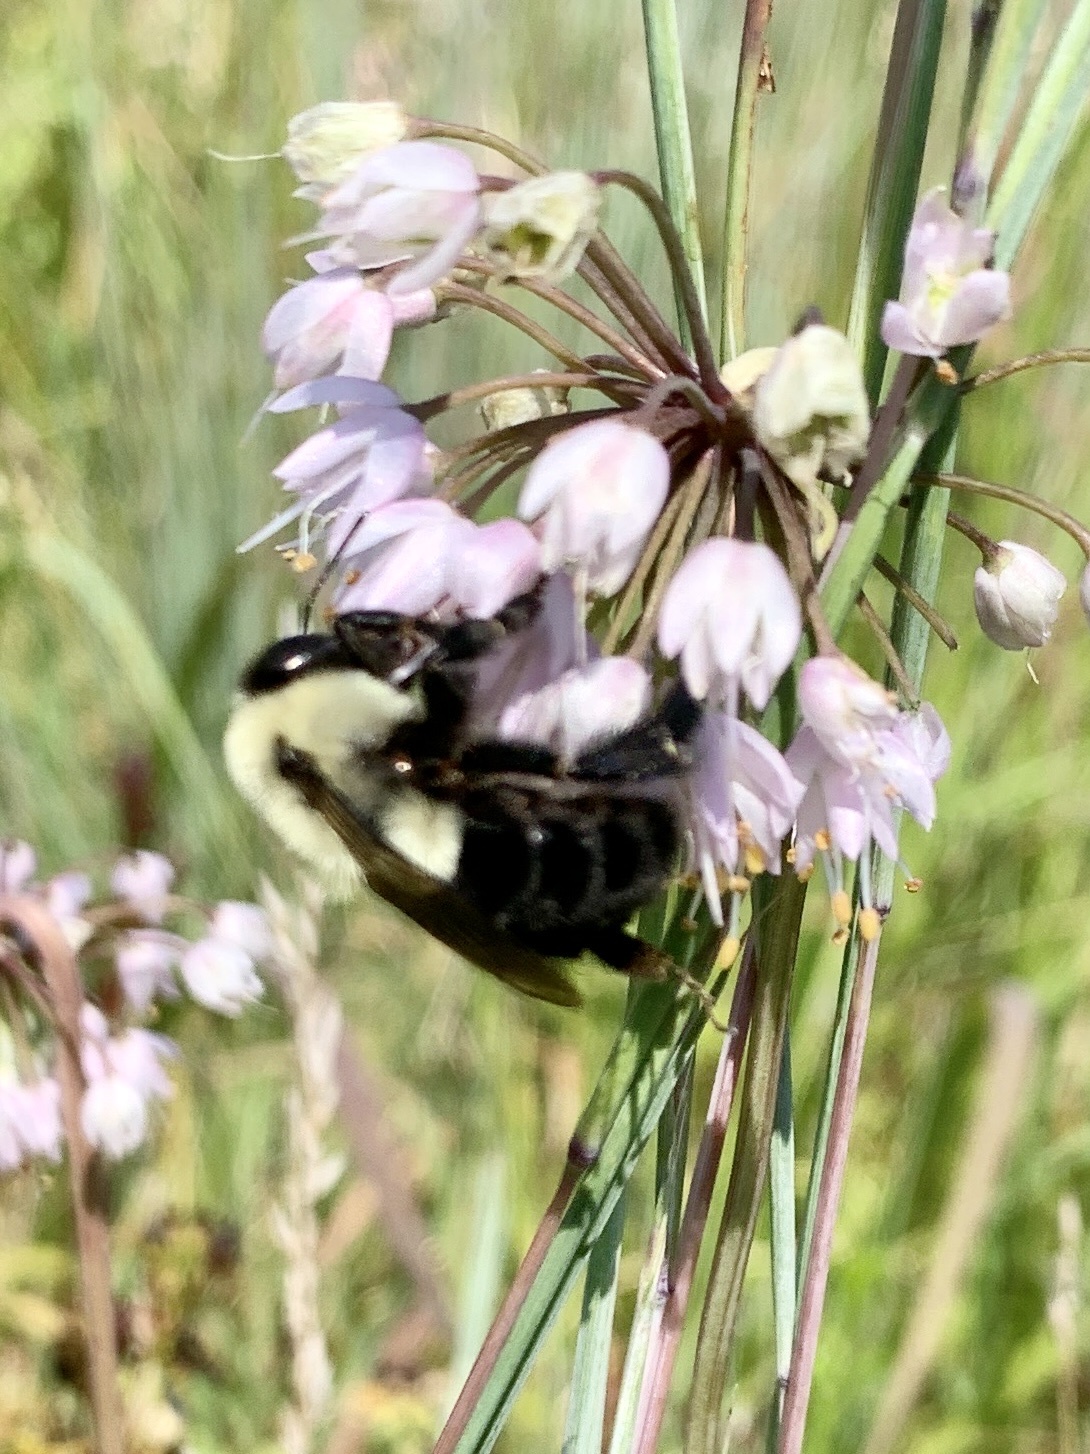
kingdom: Animalia
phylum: Arthropoda
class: Insecta
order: Hymenoptera
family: Apidae
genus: Bombus
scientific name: Bombus impatiens
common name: Common eastern bumble bee
